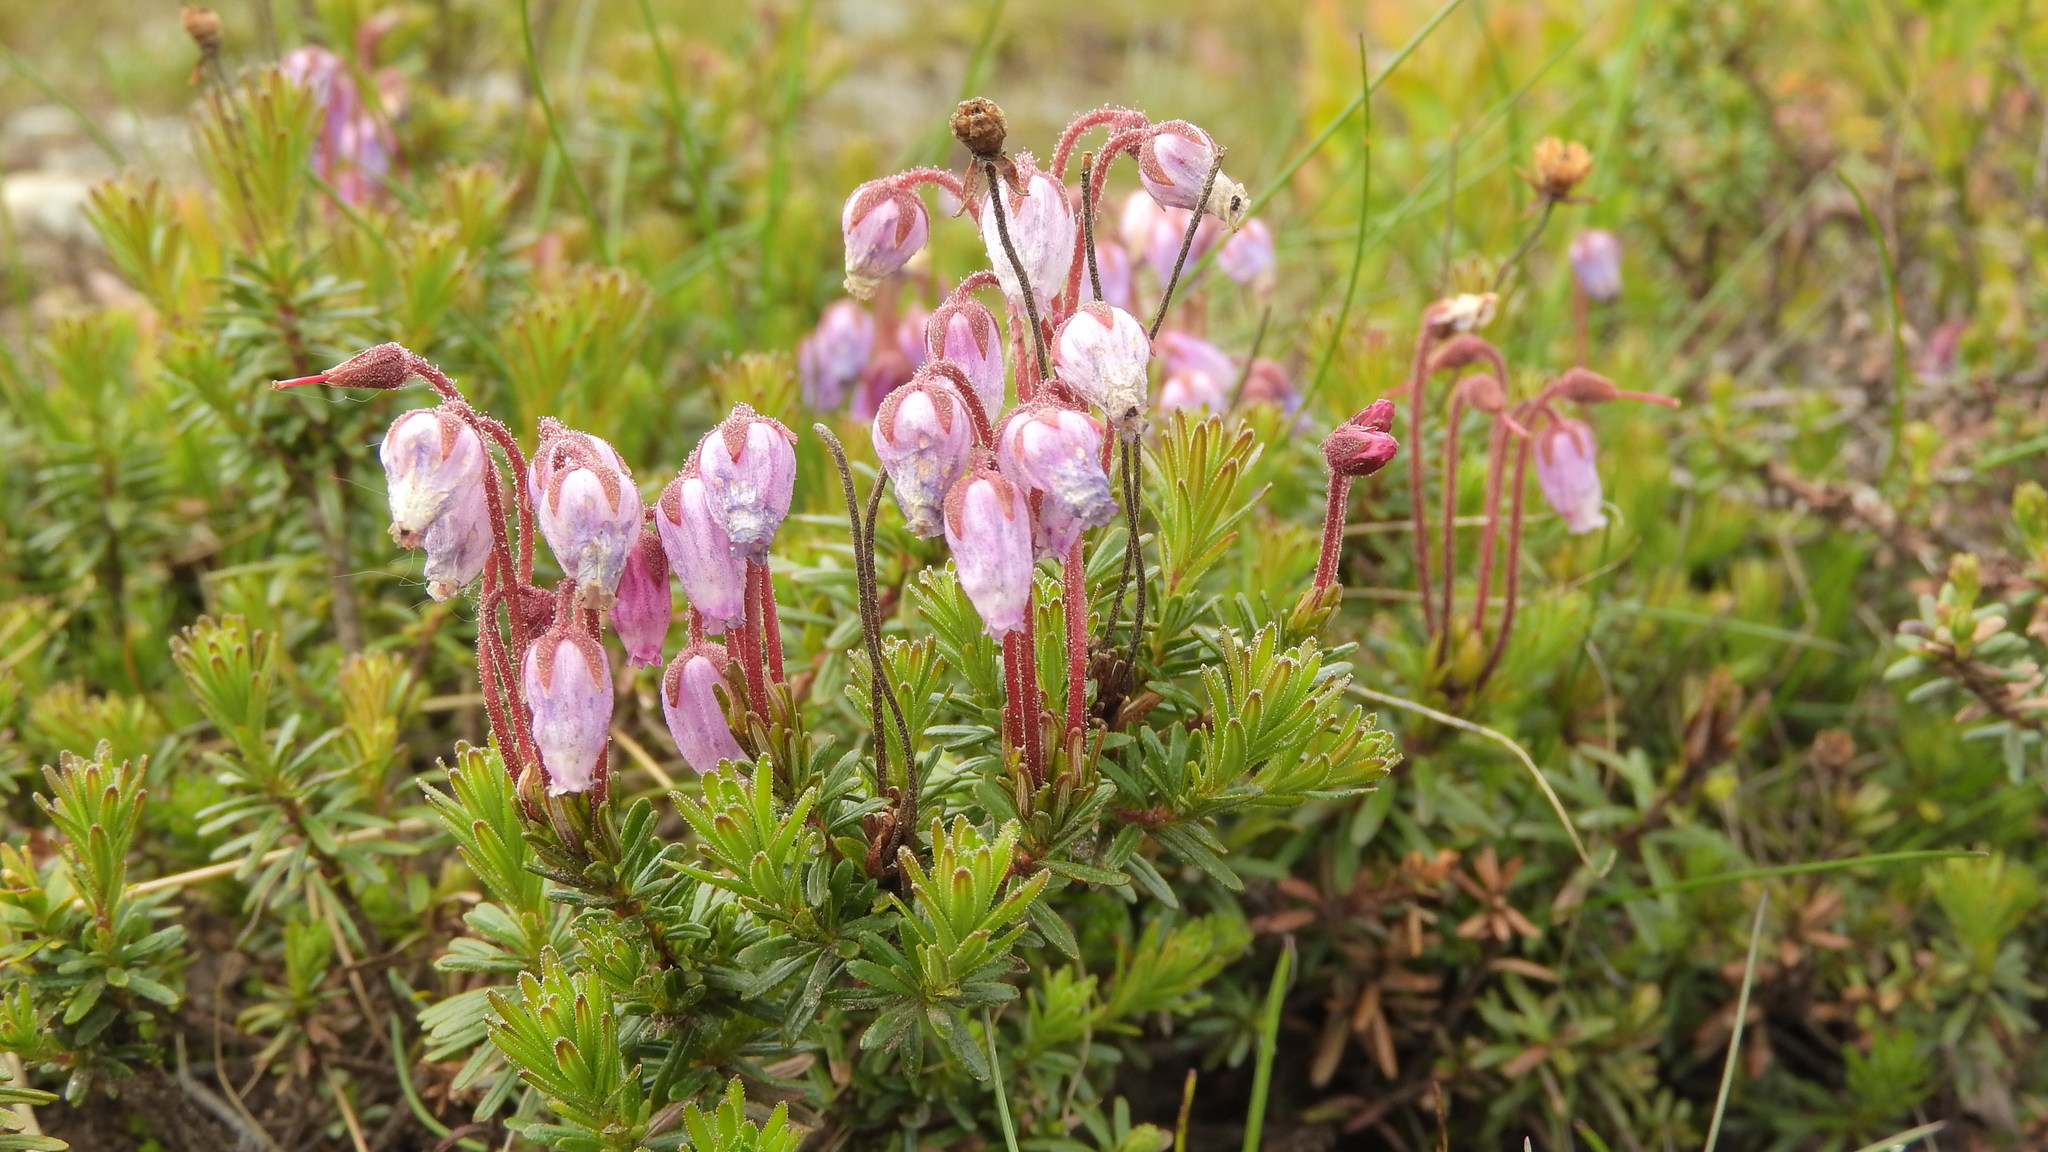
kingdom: Plantae
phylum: Tracheophyta
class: Magnoliopsida
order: Ericales
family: Ericaceae
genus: Phyllodoce
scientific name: Phyllodoce caerulea
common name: Blue heath
